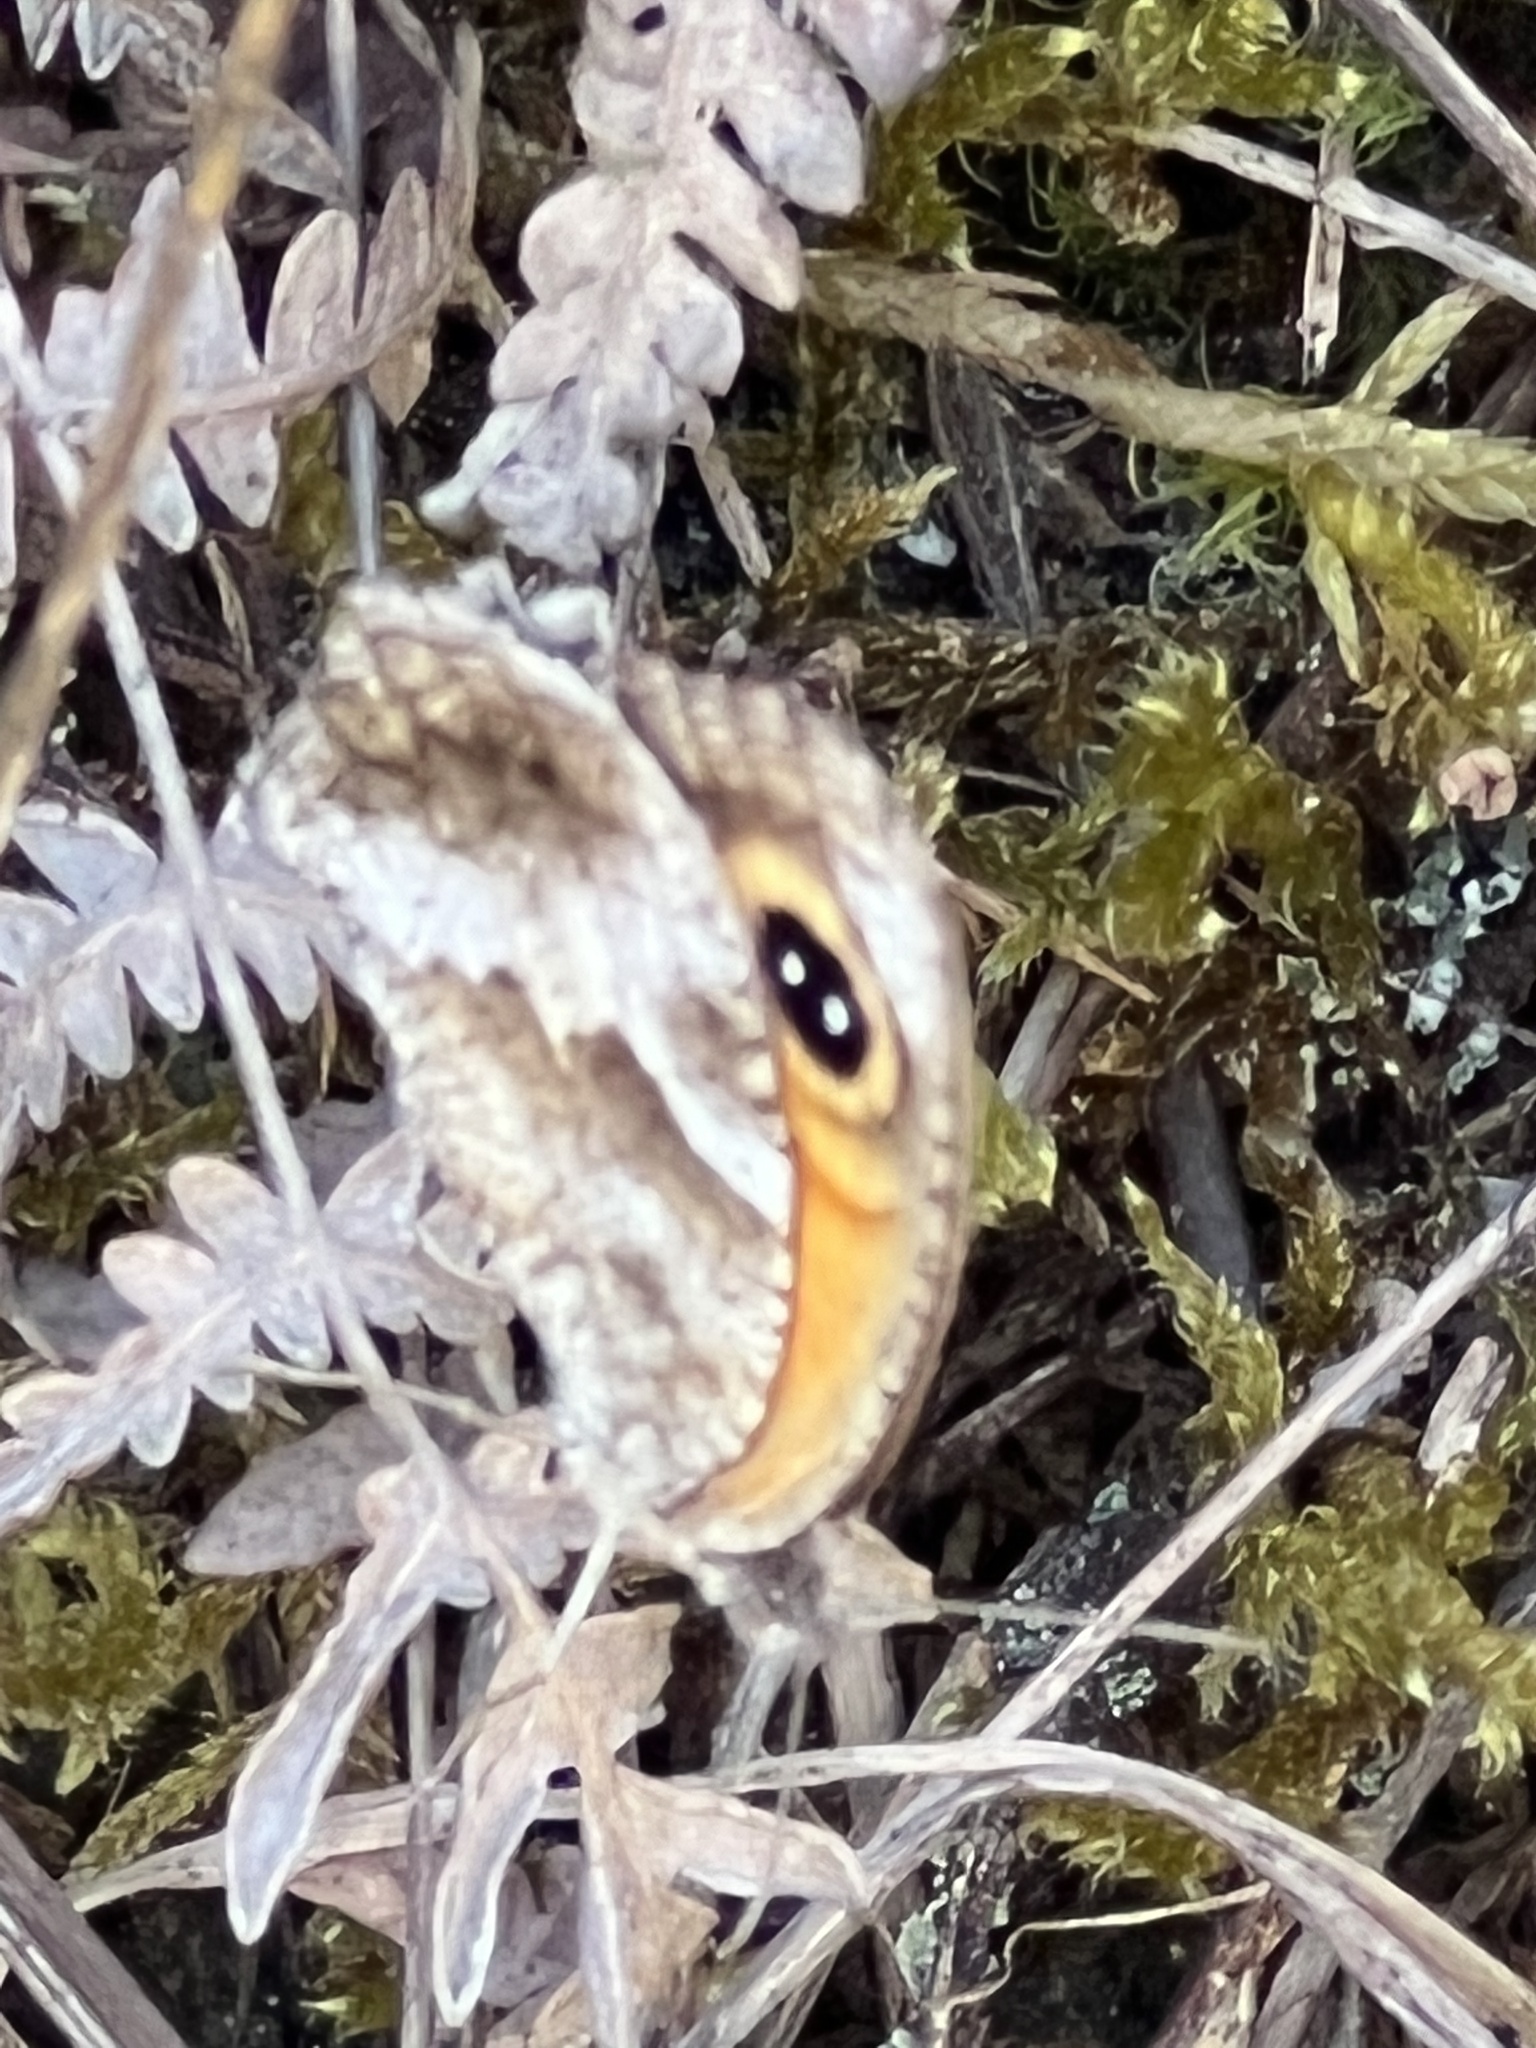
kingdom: Animalia
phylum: Arthropoda
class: Insecta
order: Lepidoptera
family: Nymphalidae
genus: Pyronia
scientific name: Pyronia cecilia
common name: Southern gatekeeper
